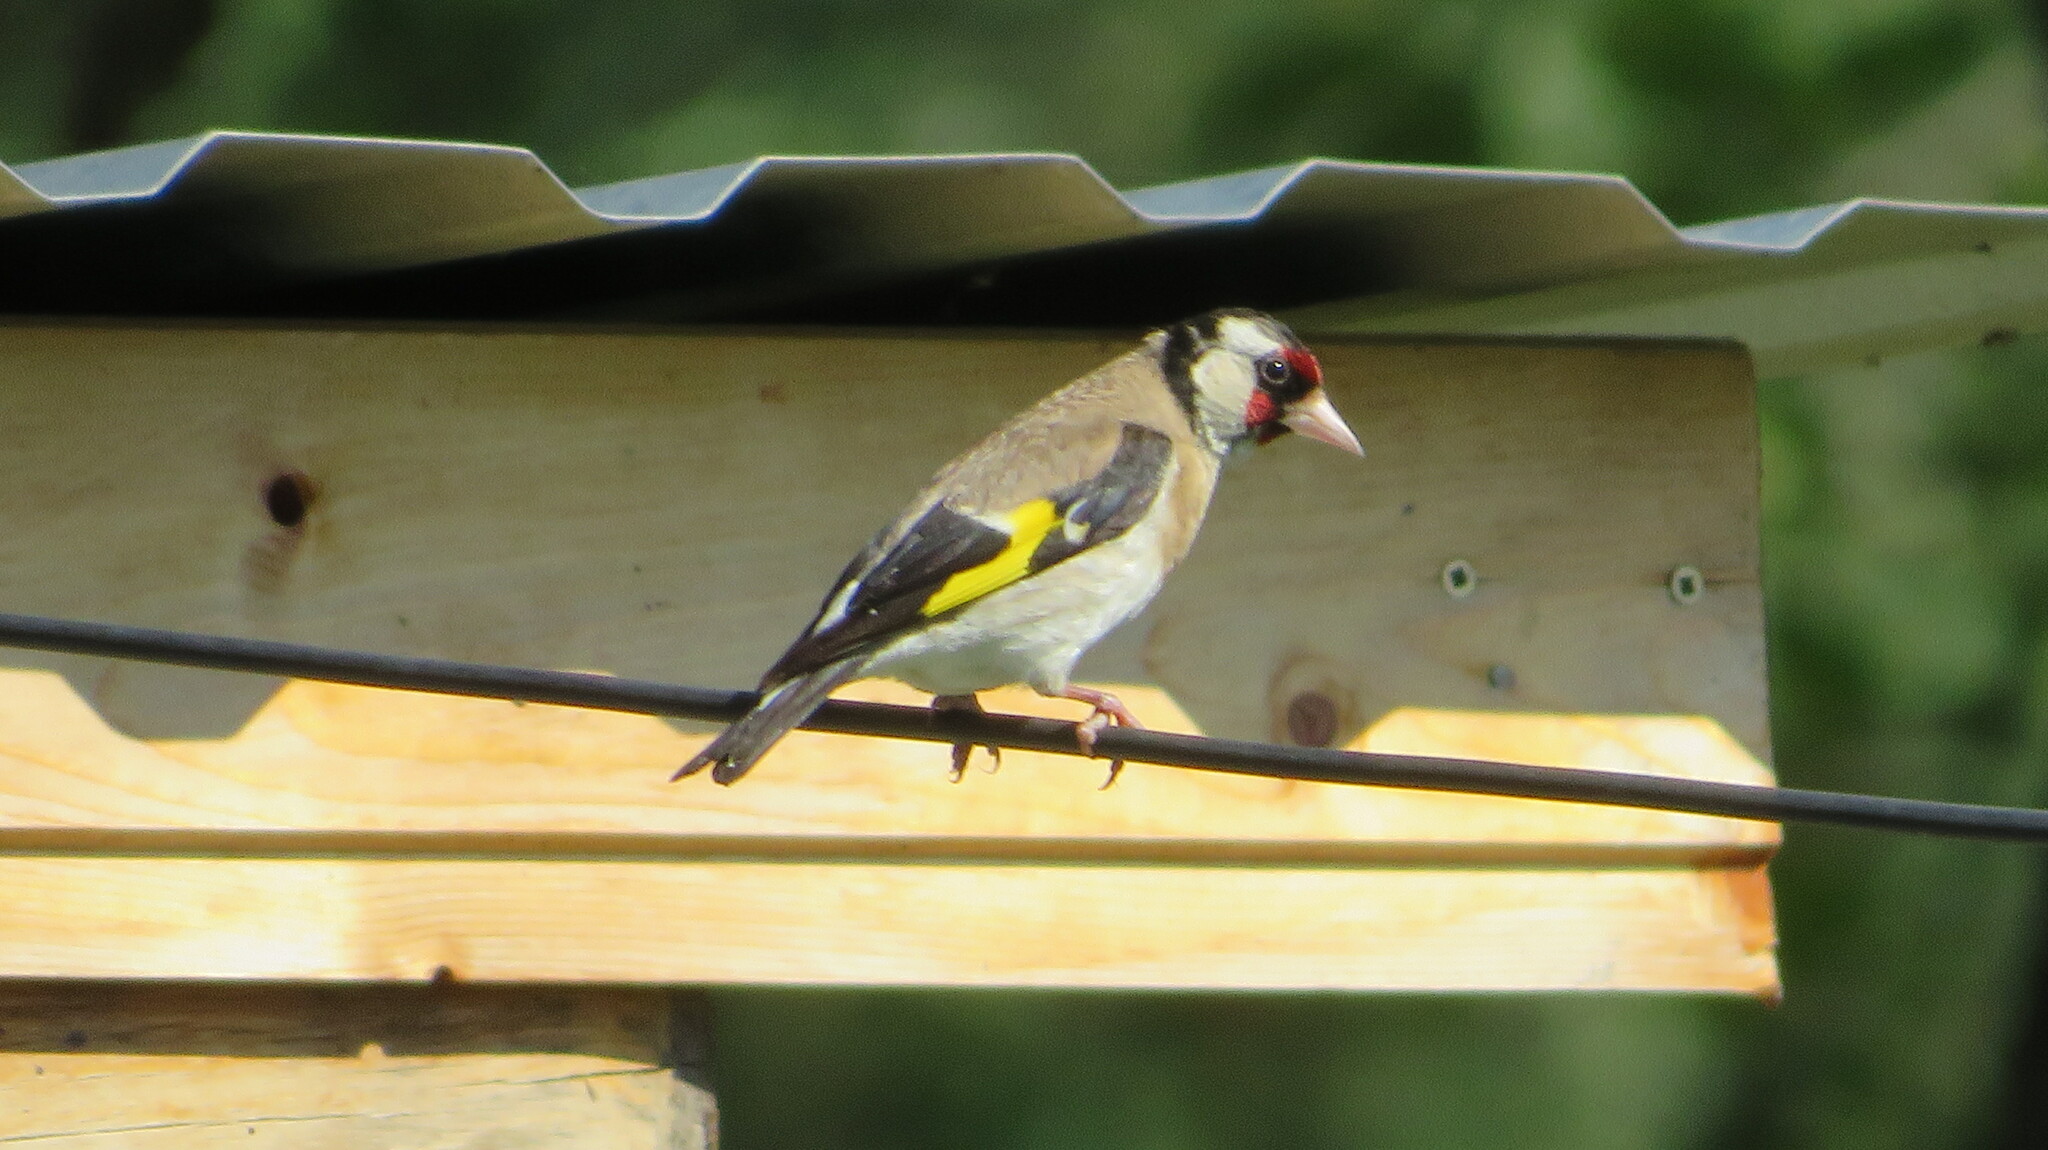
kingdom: Animalia
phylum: Chordata
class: Aves
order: Passeriformes
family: Fringillidae
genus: Carduelis
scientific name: Carduelis carduelis
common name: European goldfinch
